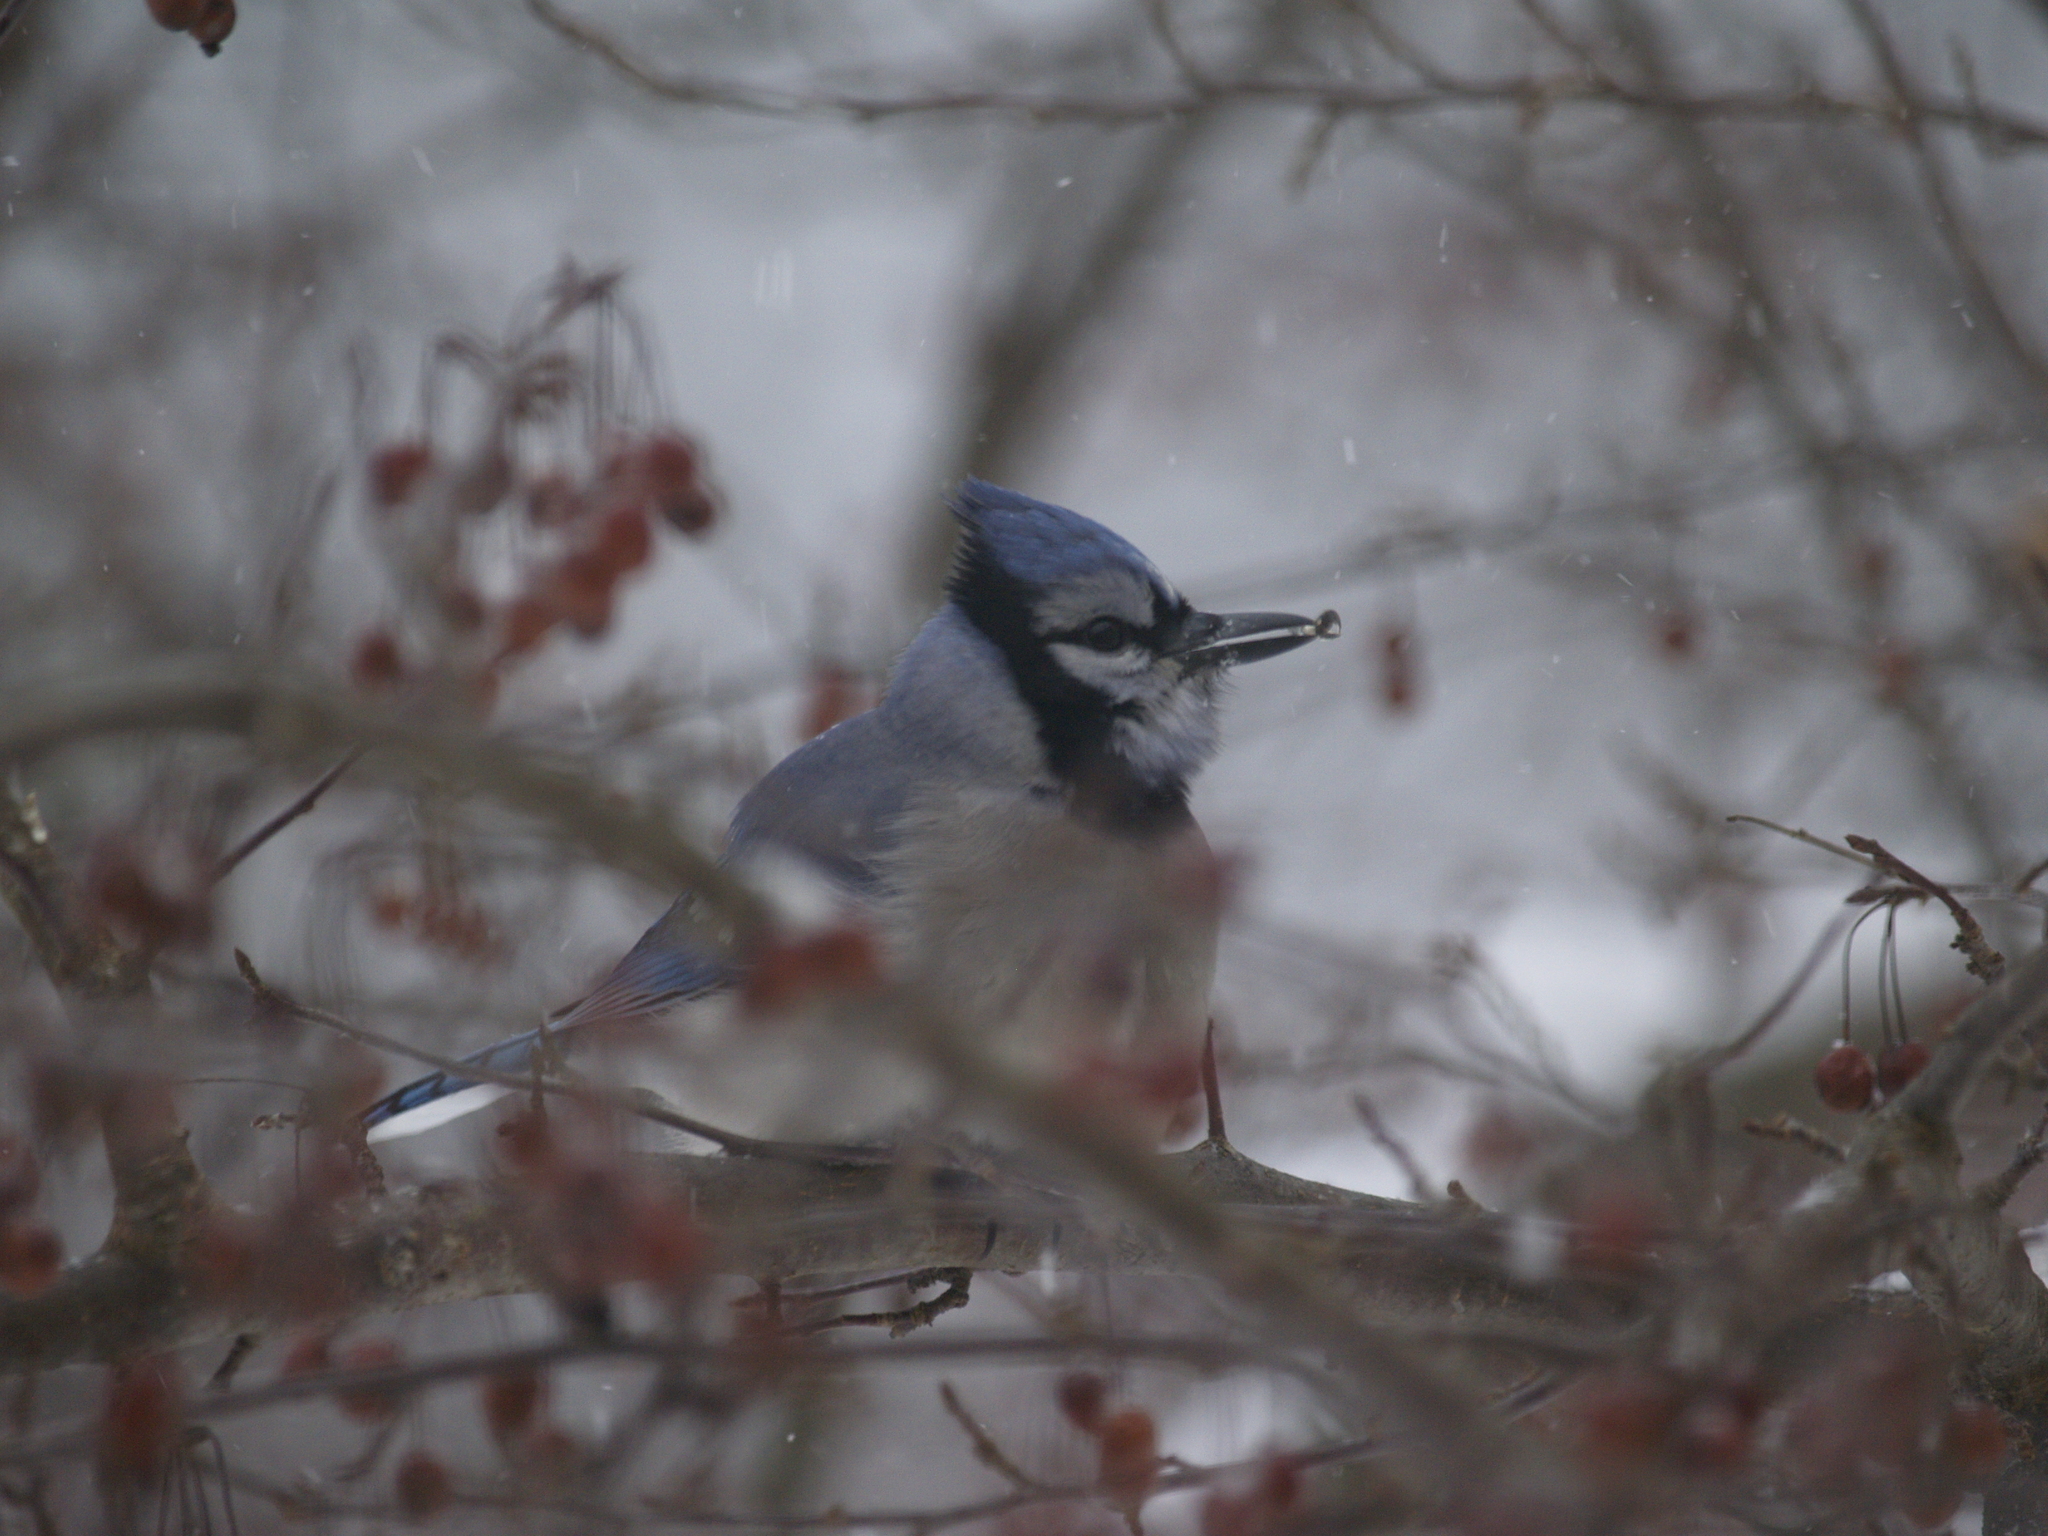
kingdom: Animalia
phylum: Chordata
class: Aves
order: Passeriformes
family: Corvidae
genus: Cyanocitta
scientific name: Cyanocitta cristata
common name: Blue jay
